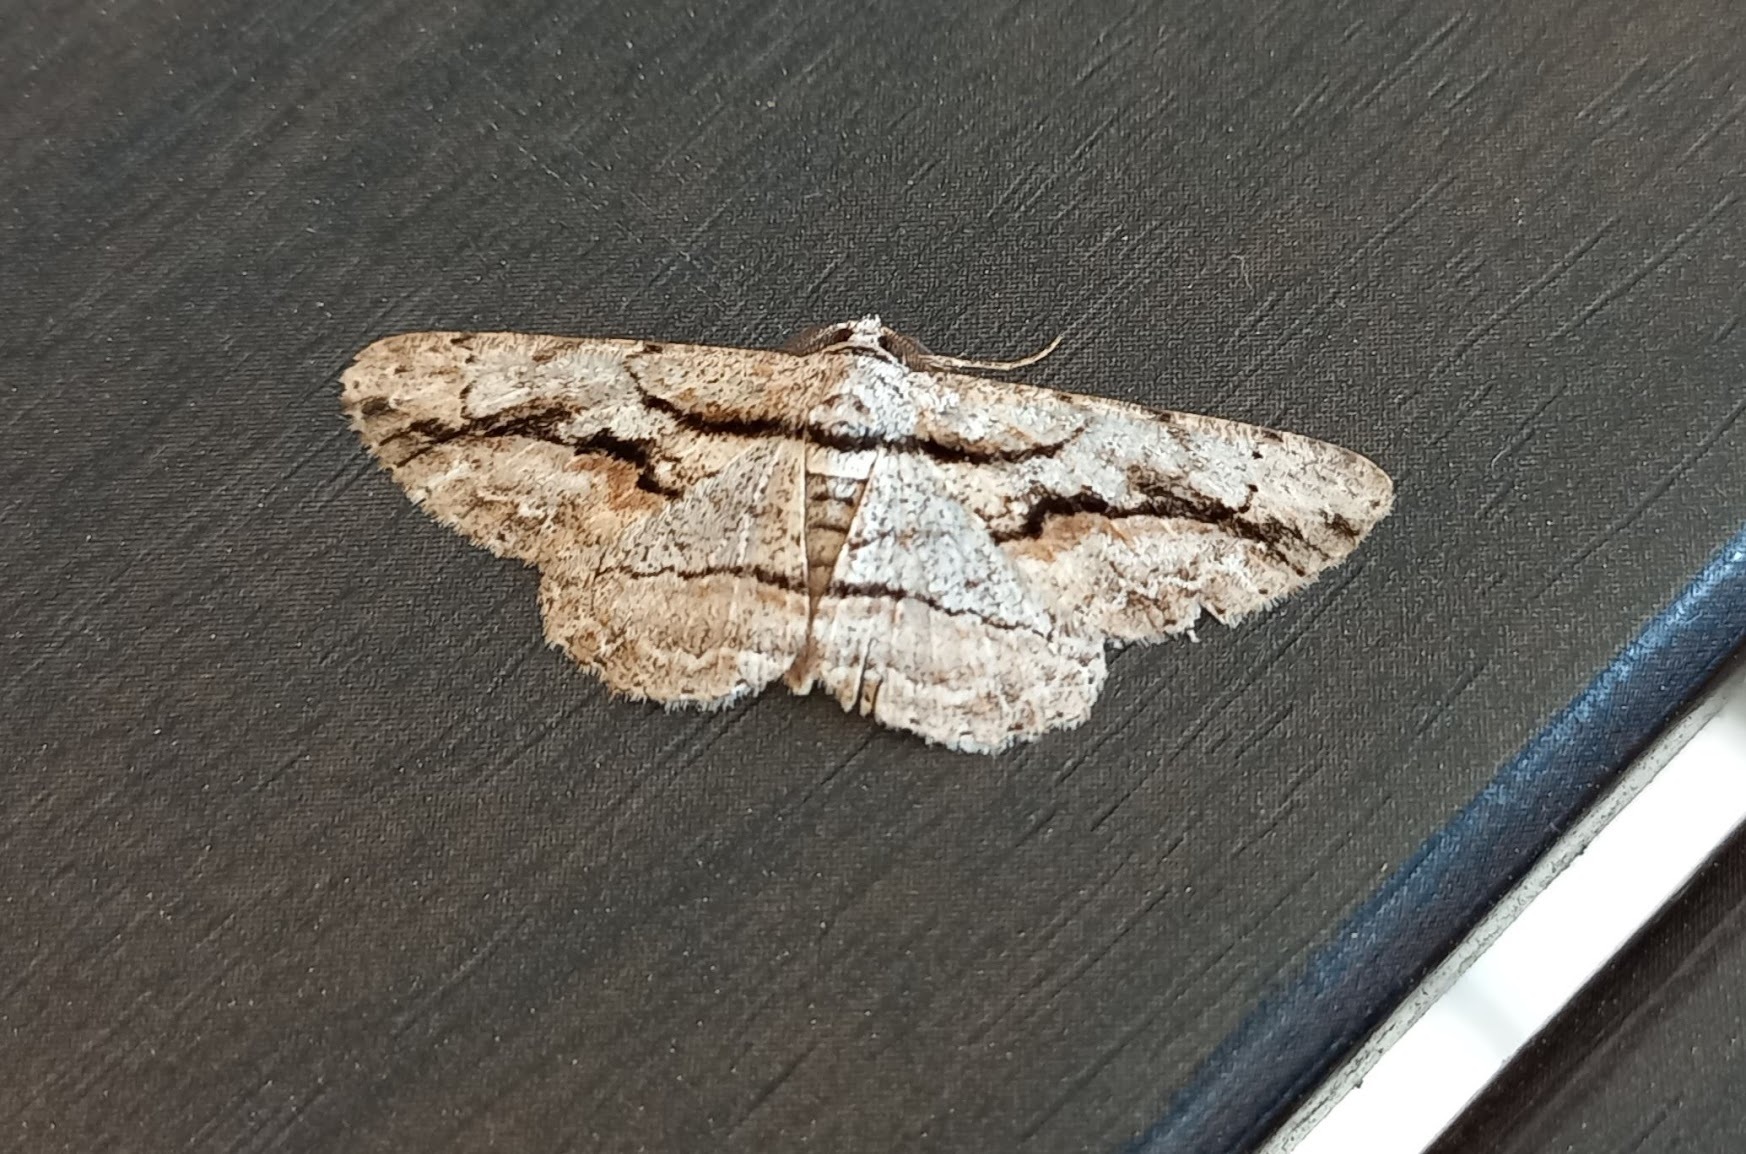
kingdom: Animalia
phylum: Arthropoda
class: Insecta
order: Lepidoptera
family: Geometridae
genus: Anavitrinella
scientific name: Anavitrinella atristrigaria
